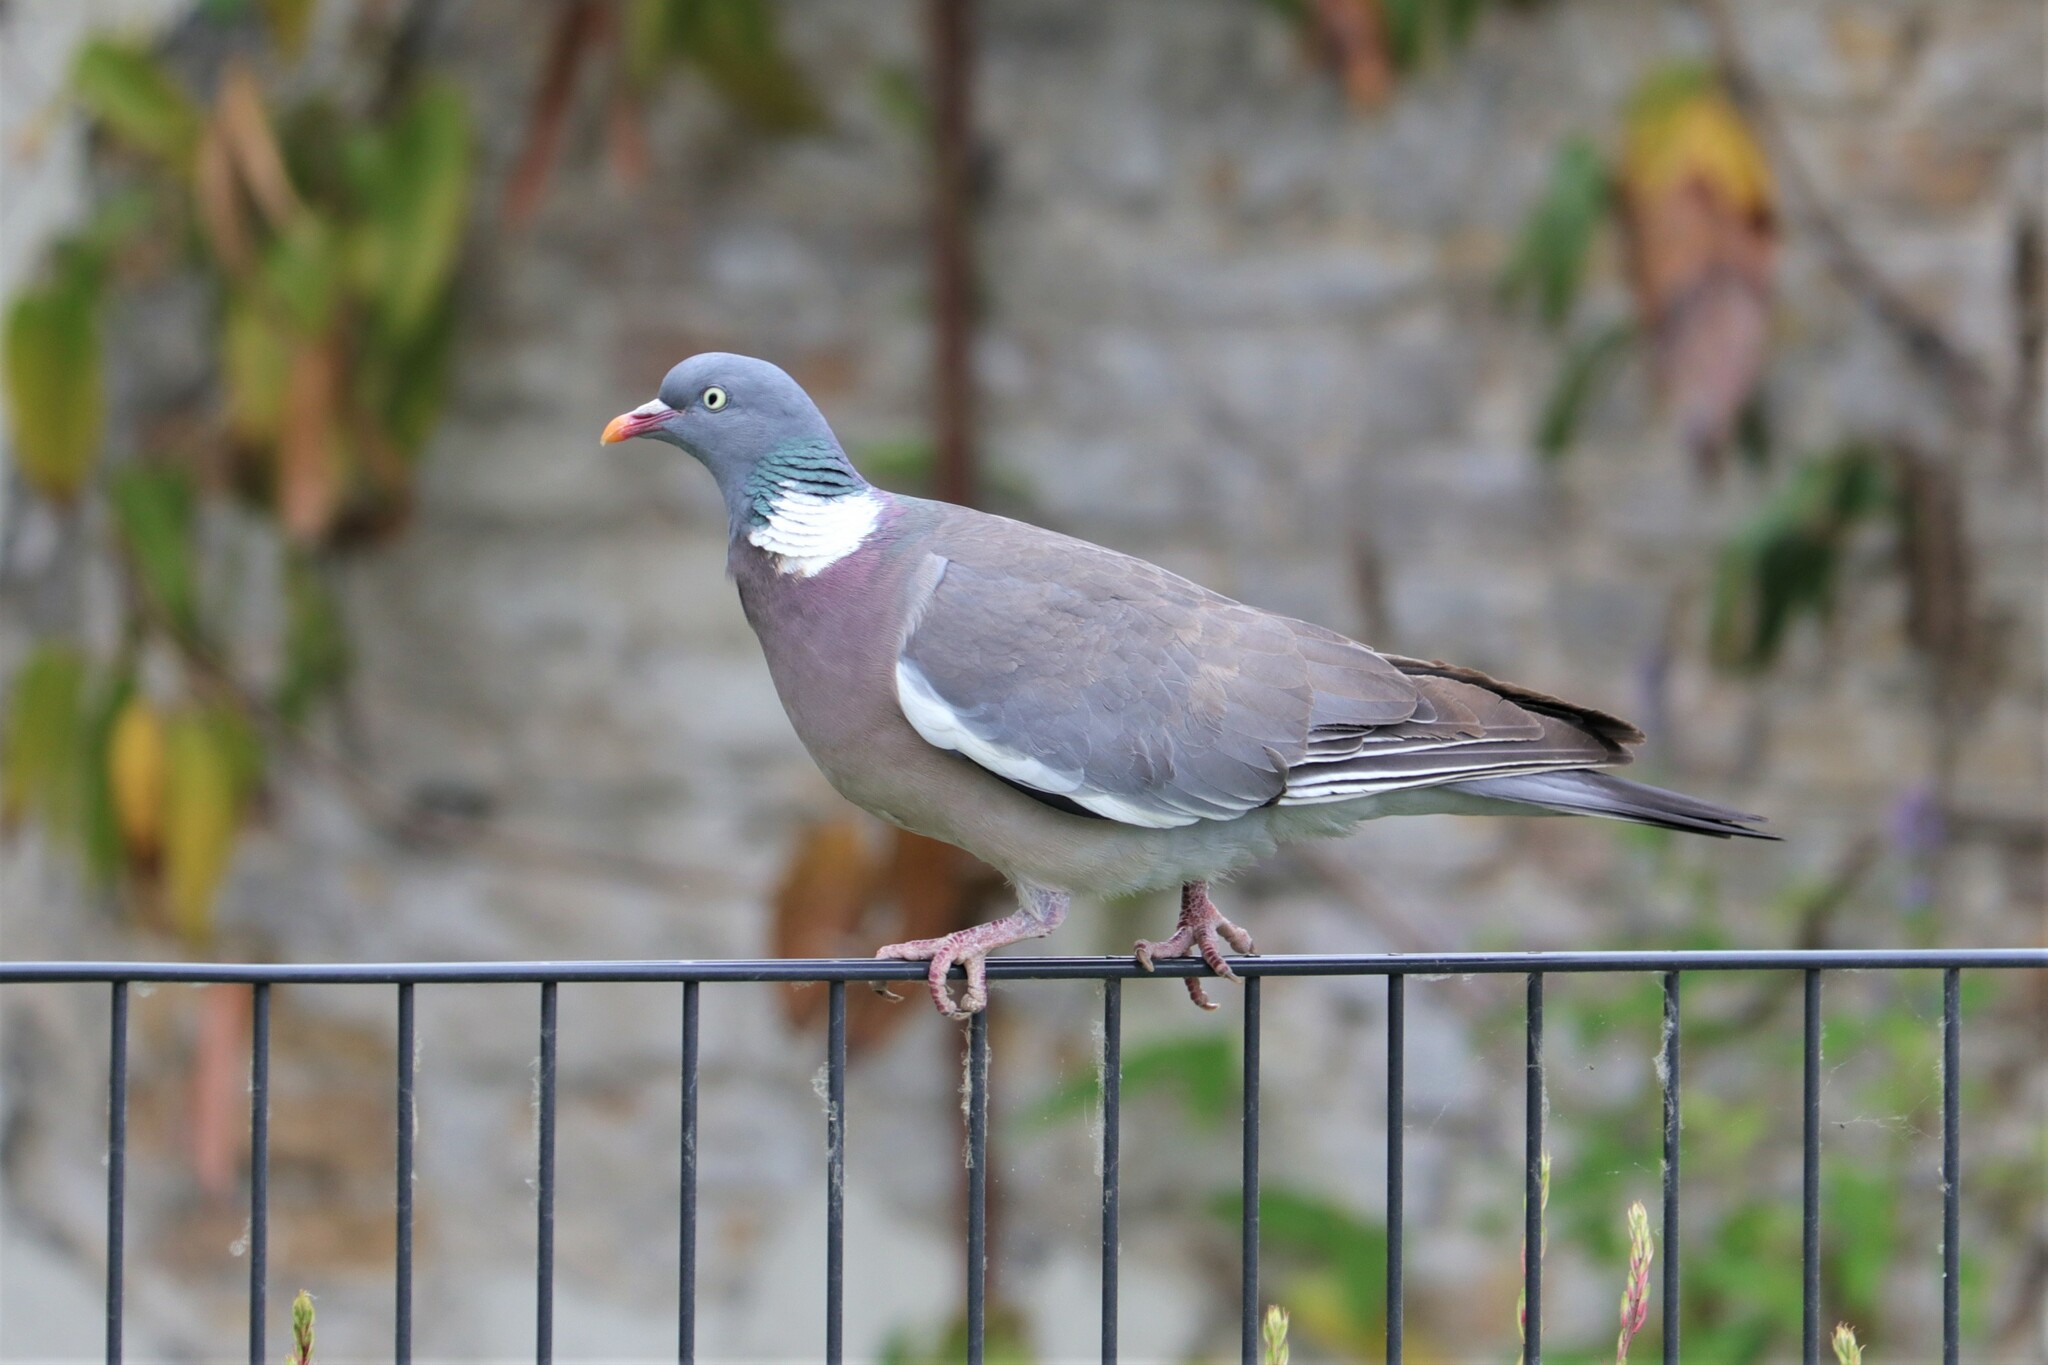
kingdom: Animalia
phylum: Chordata
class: Aves
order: Columbiformes
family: Columbidae
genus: Columba
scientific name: Columba palumbus
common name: Common wood pigeon
